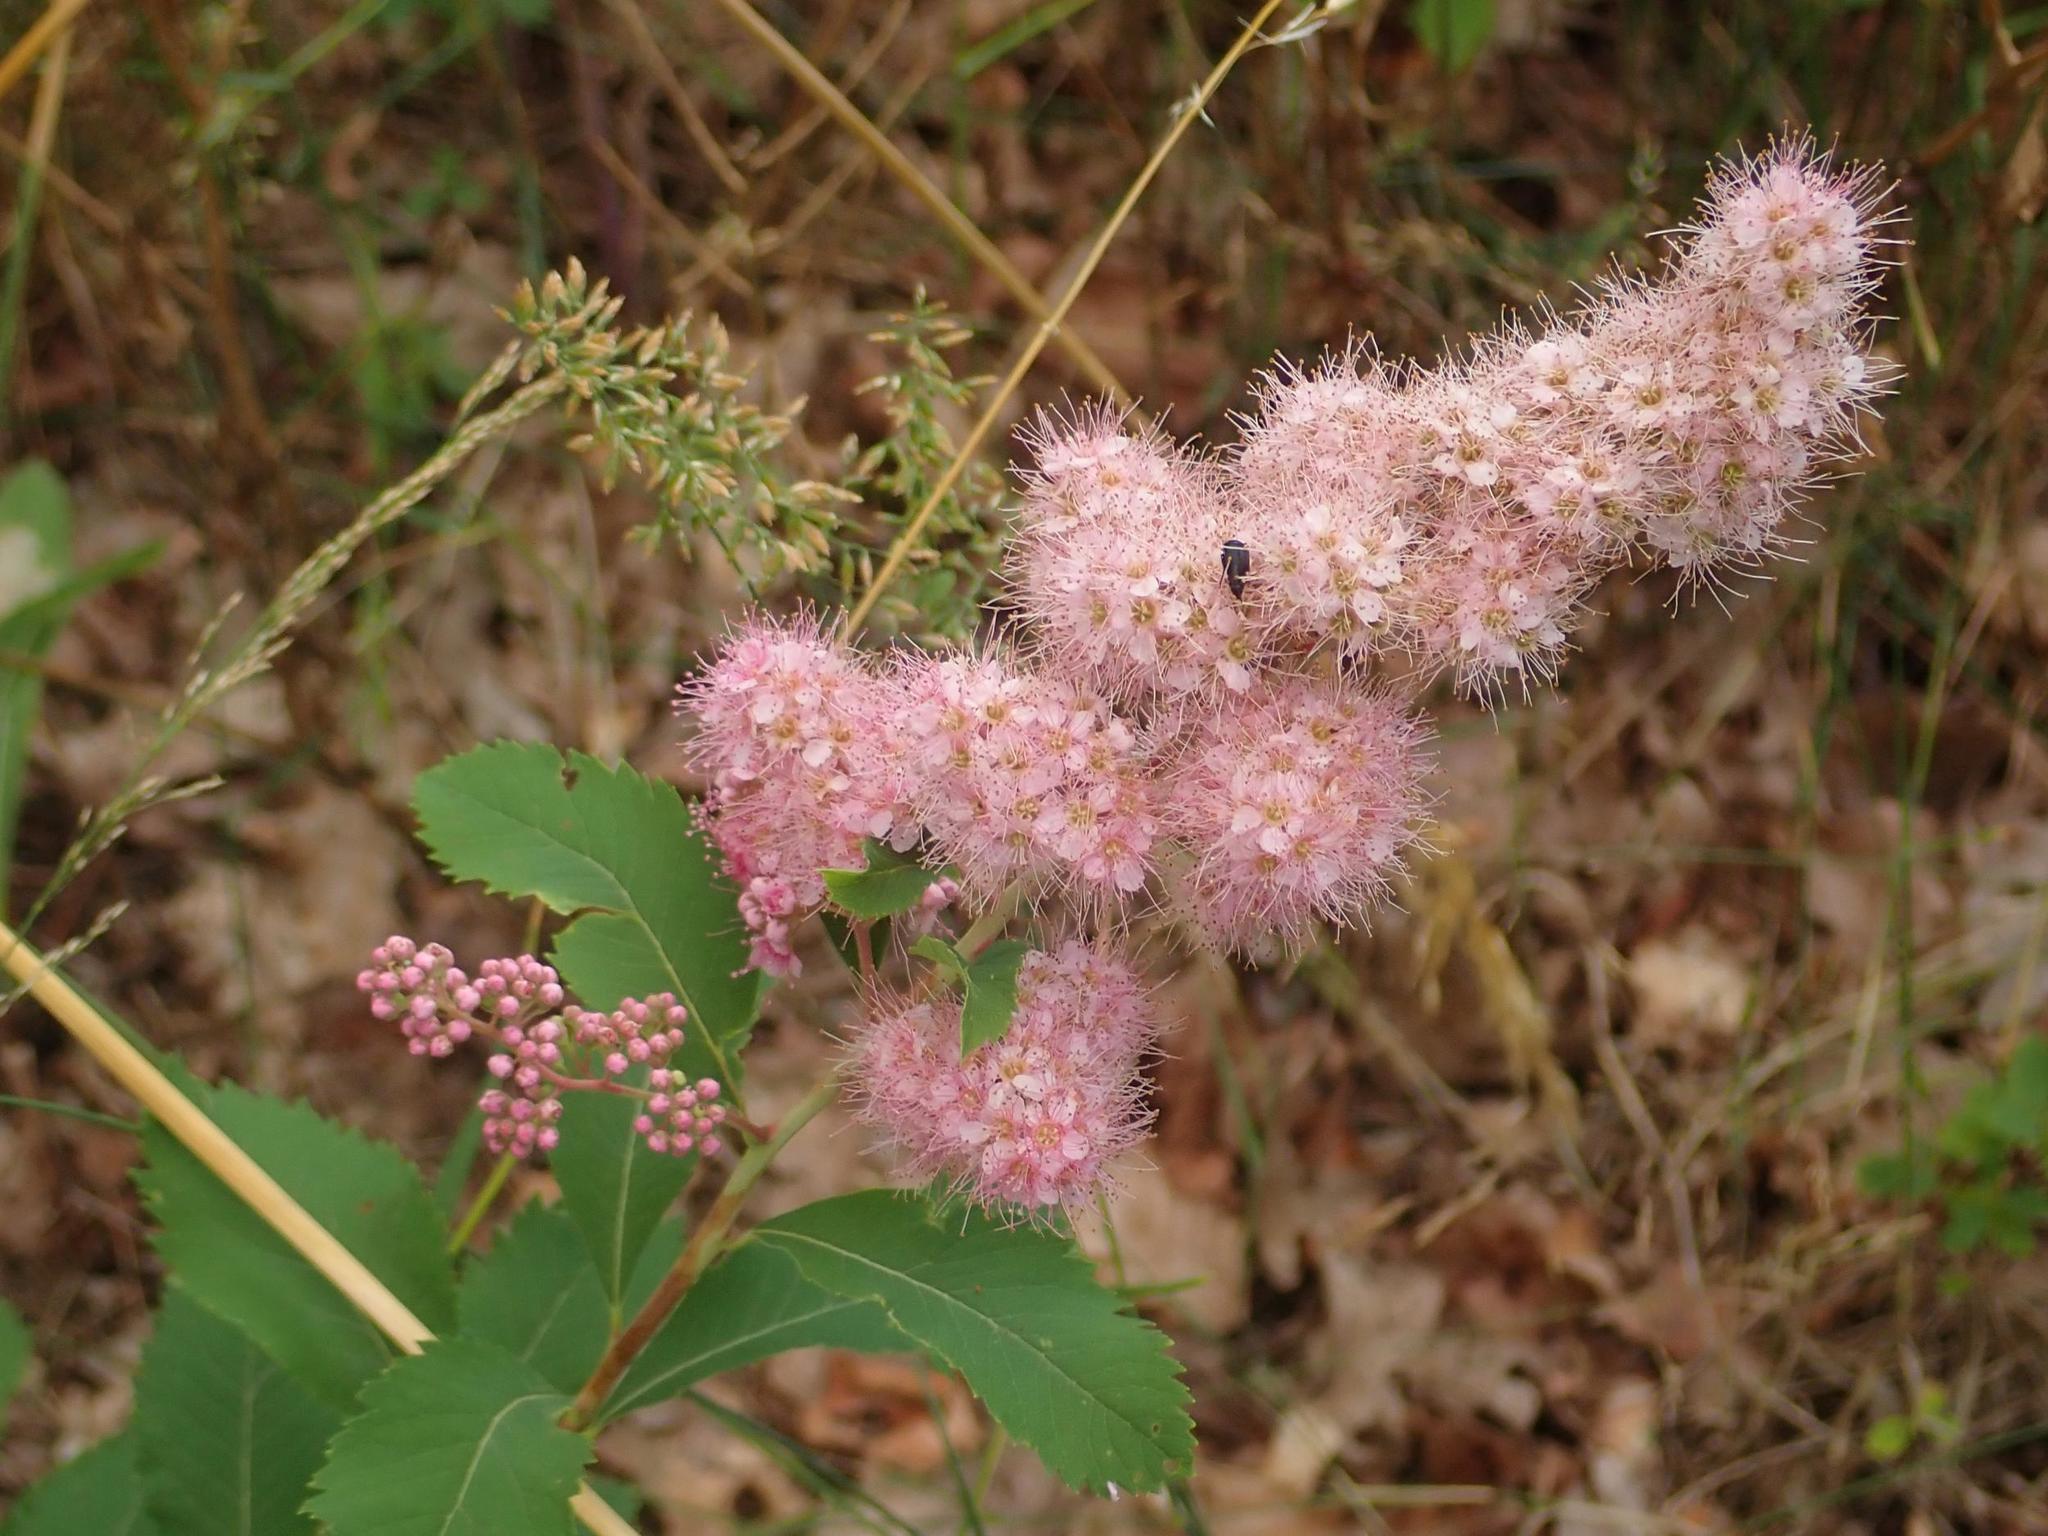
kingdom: Plantae
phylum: Tracheophyta
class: Magnoliopsida
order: Rosales
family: Rosaceae
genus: Spiraea
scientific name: Spiraea douglasii
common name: Steeplebush
